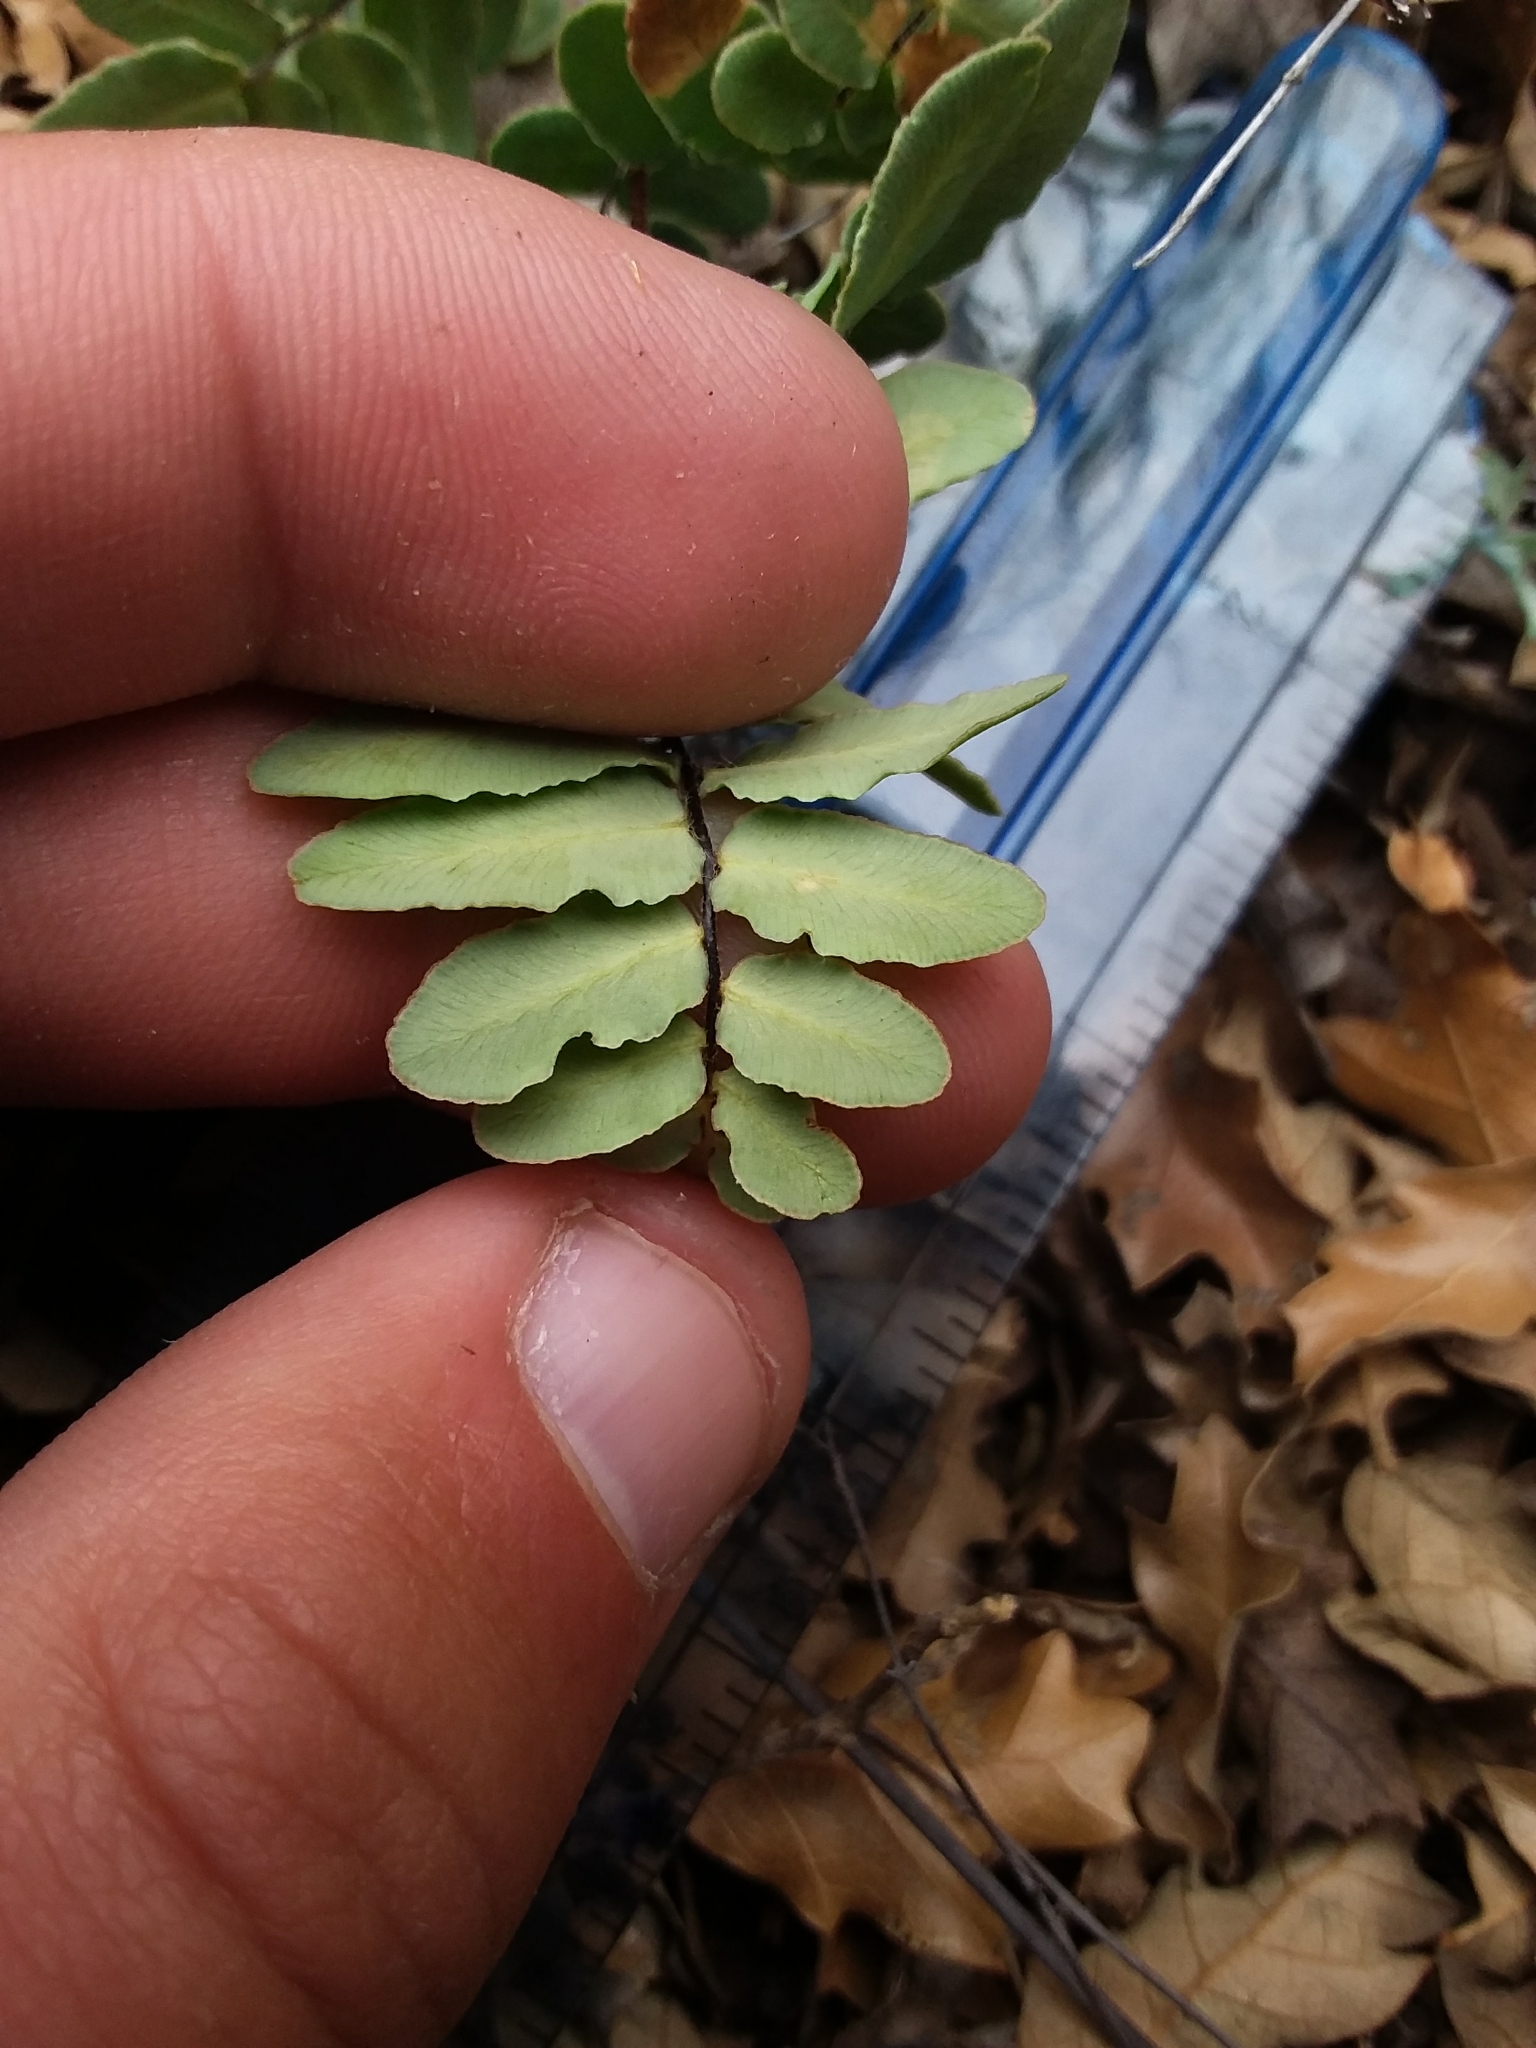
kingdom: Plantae
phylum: Tracheophyta
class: Polypodiopsida
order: Polypodiales
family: Pteridaceae
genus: Pellaea
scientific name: Pellaea atropurpurea
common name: Hairy cliffbrake
